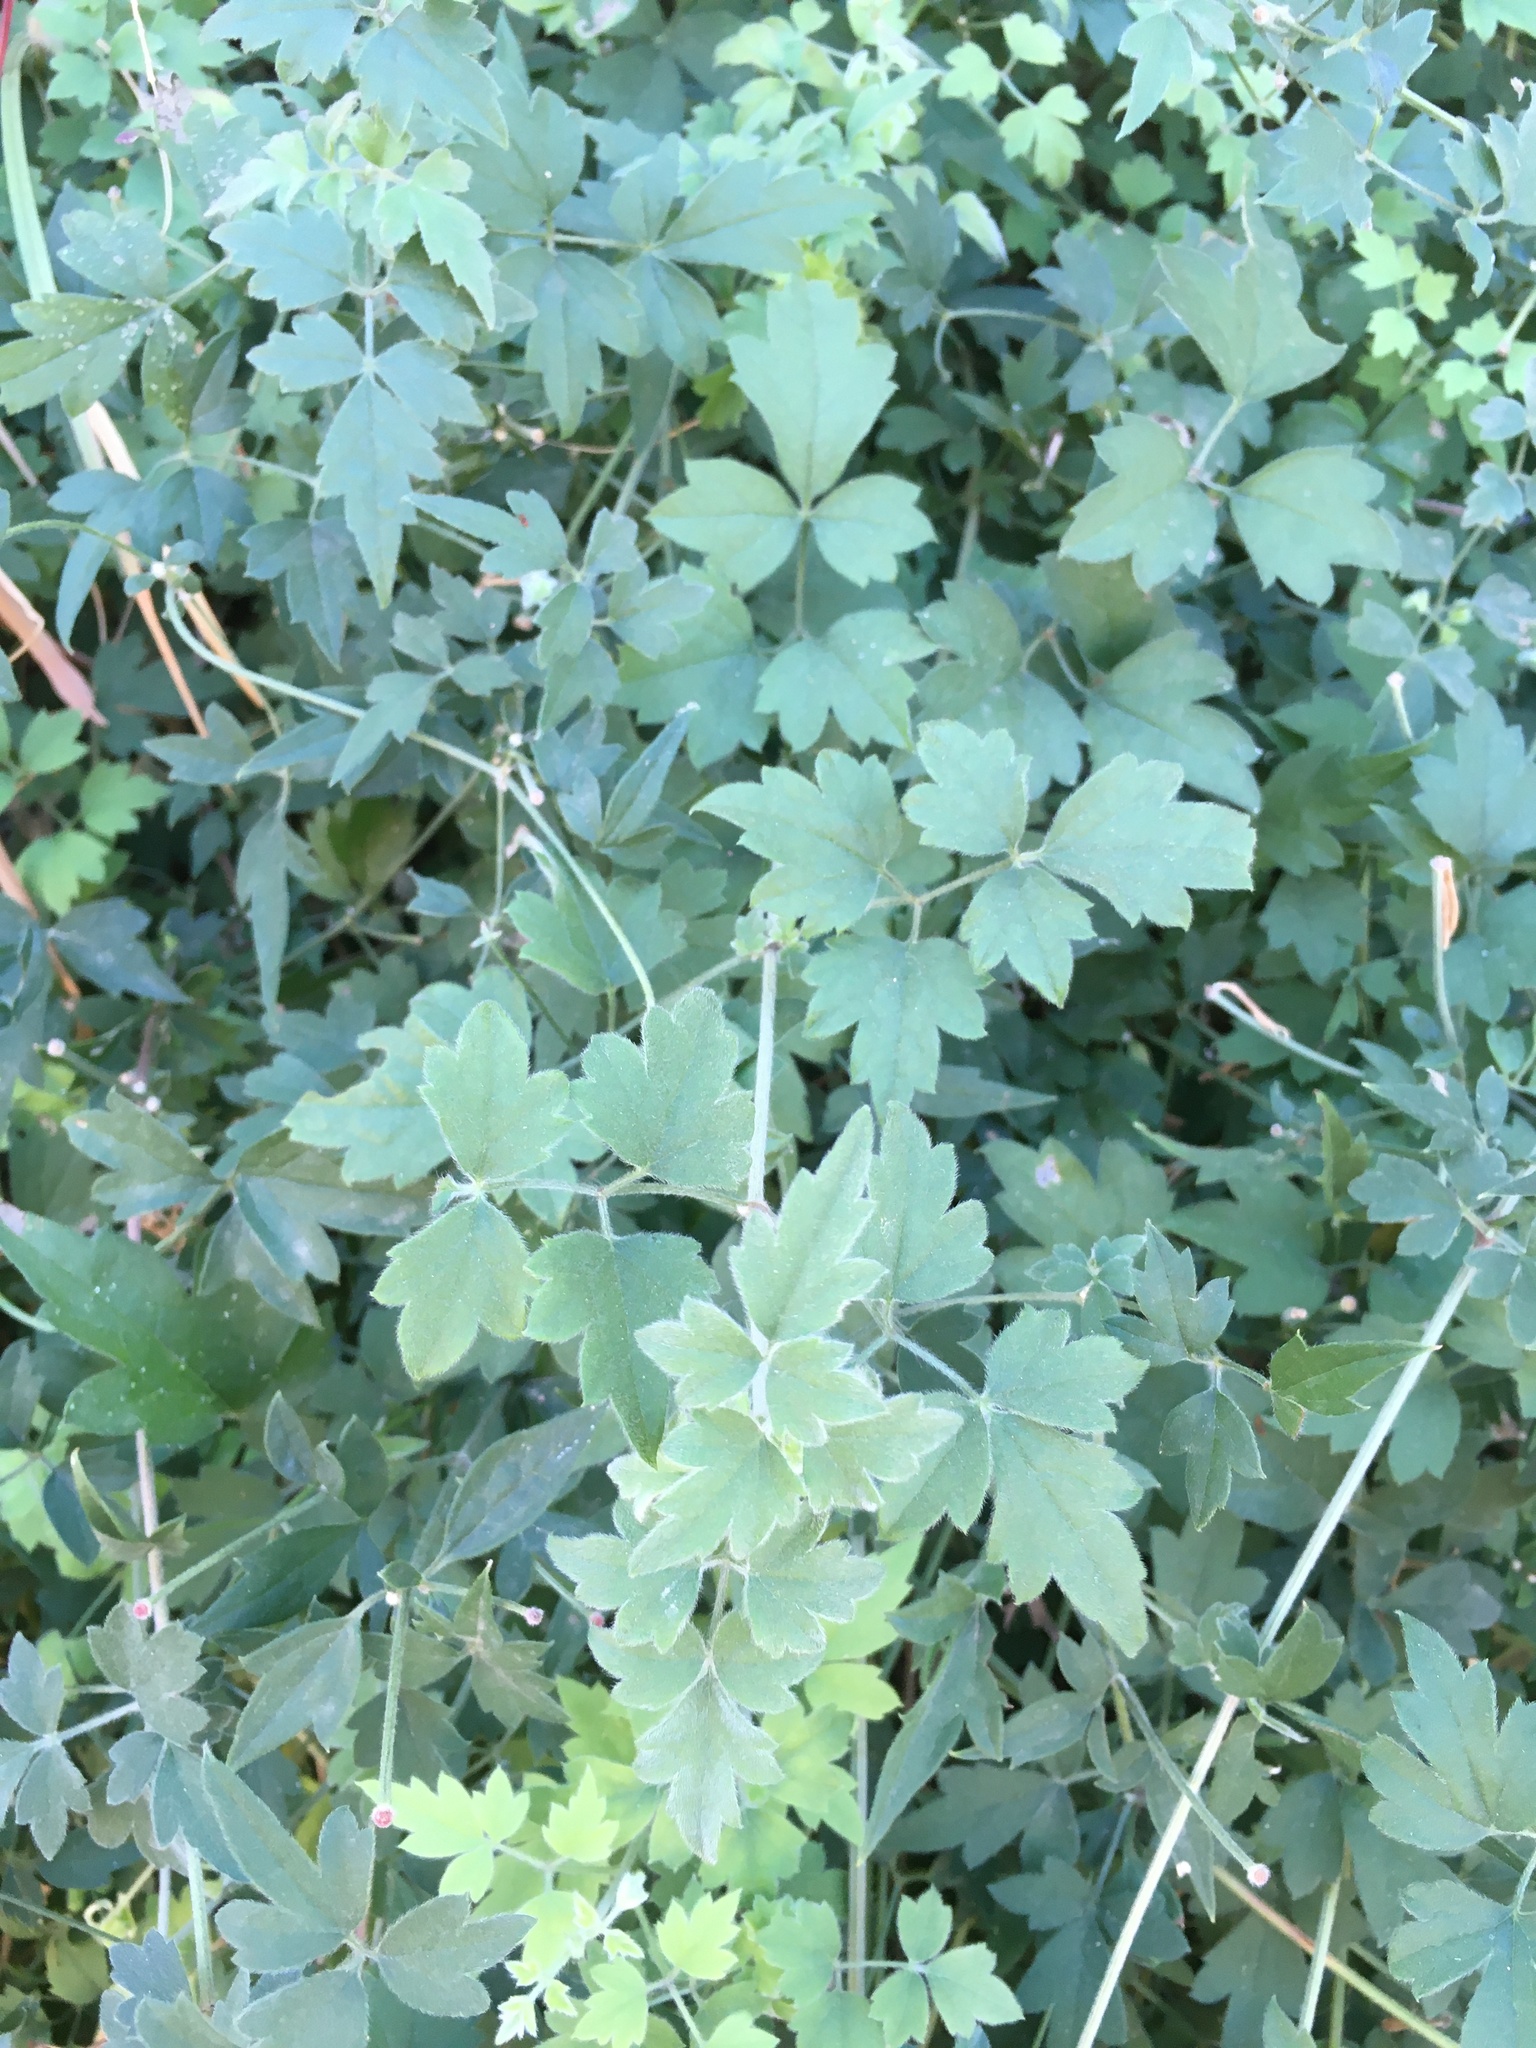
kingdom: Plantae
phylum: Tracheophyta
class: Magnoliopsida
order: Ranunculales
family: Ranunculaceae
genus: Clematis
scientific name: Clematis drummondii
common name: Texas virgin's bower
